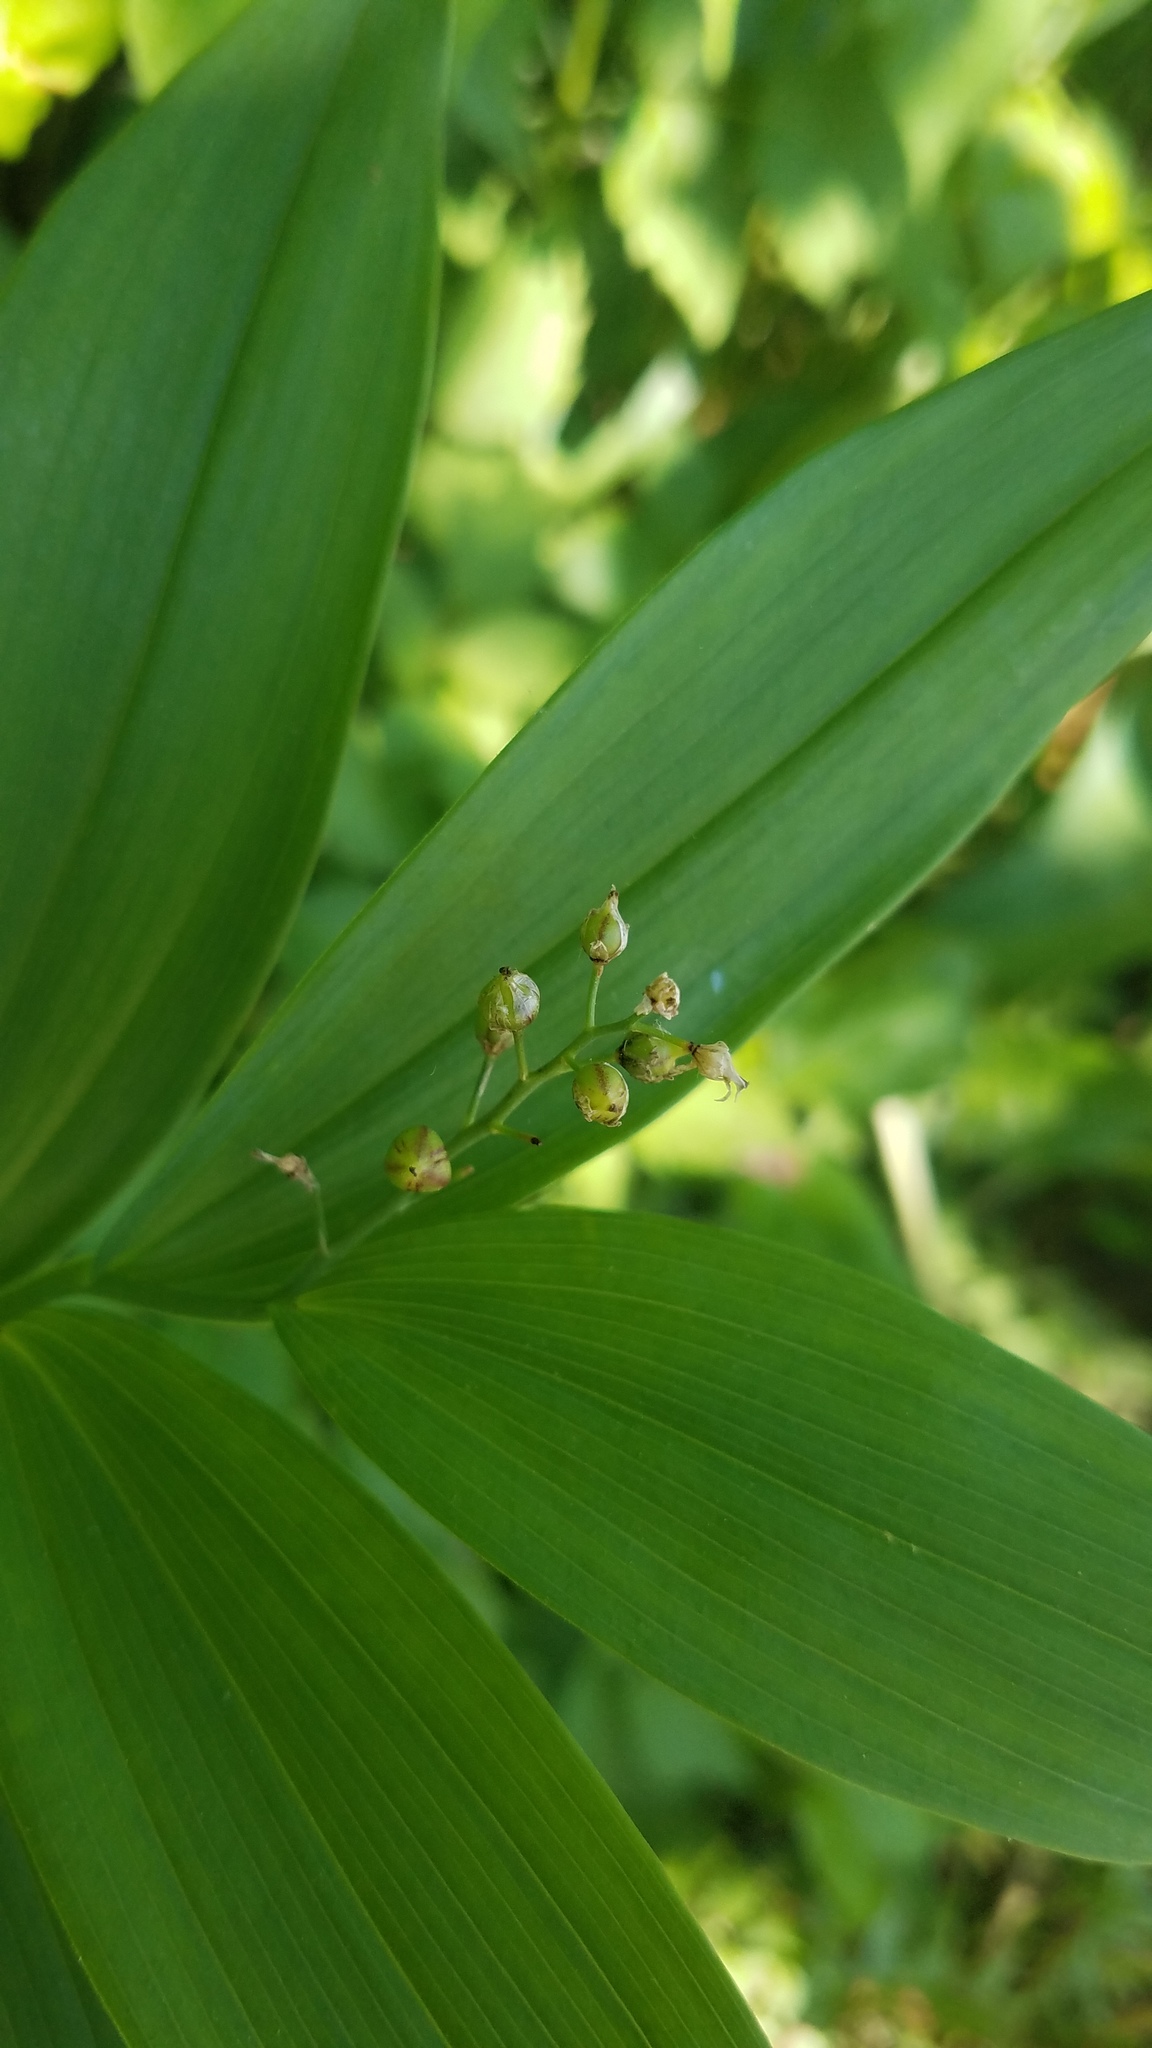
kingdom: Plantae
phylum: Tracheophyta
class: Liliopsida
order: Asparagales
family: Asparagaceae
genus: Maianthemum
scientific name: Maianthemum stellatum
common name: Little false solomon's seal
